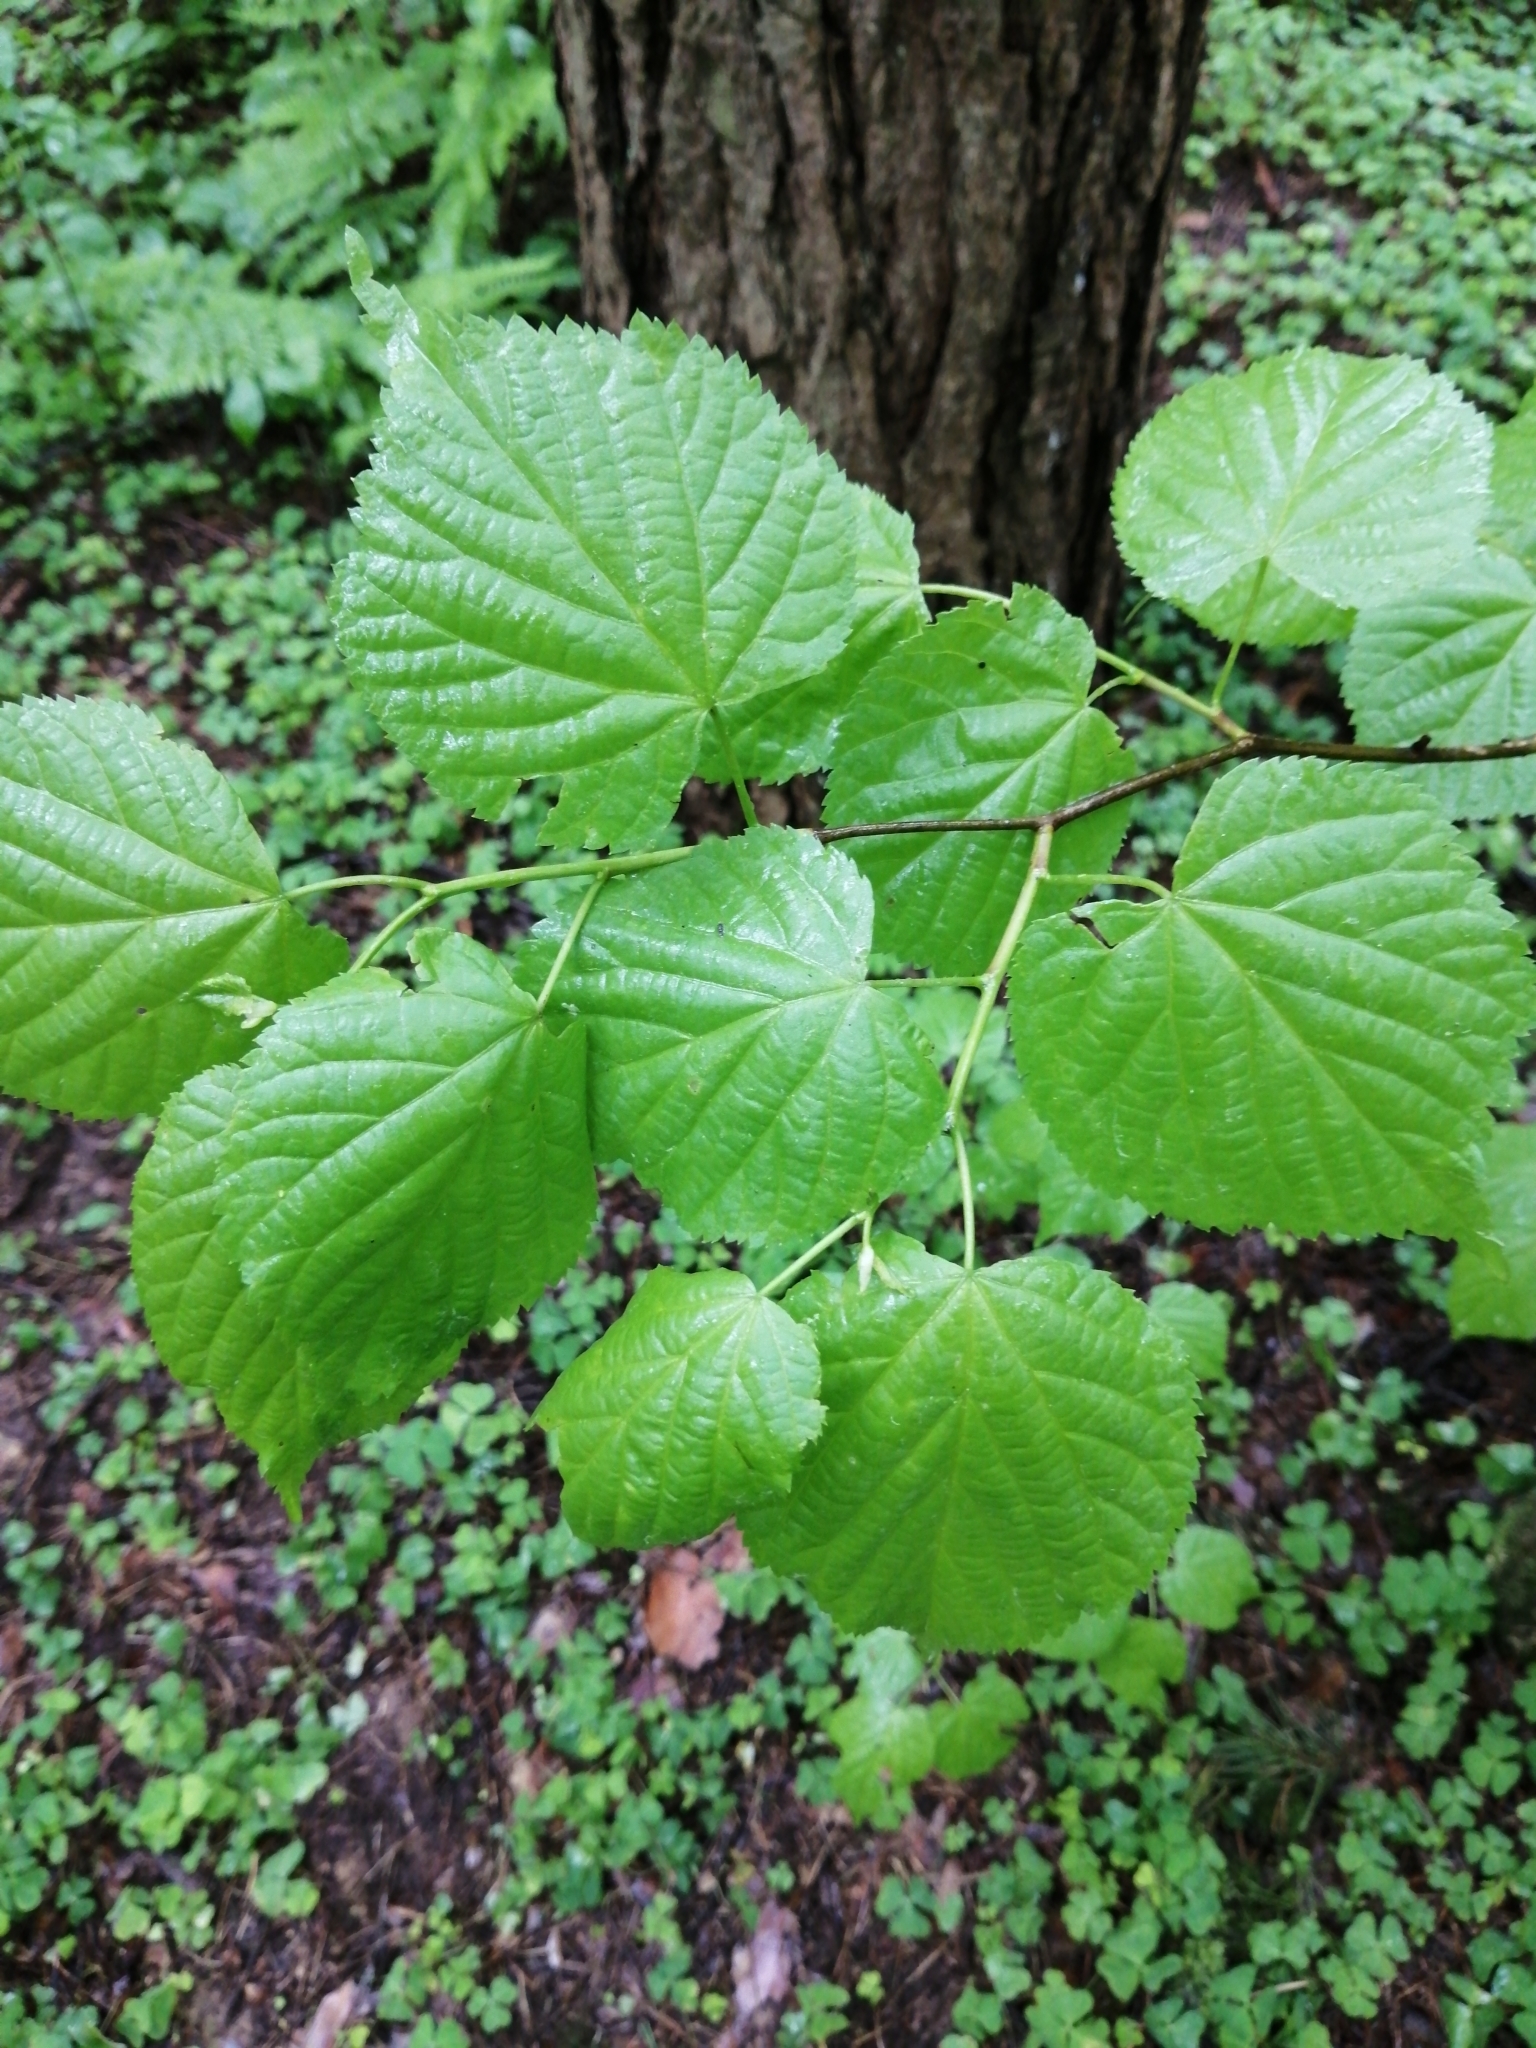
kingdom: Plantae
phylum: Tracheophyta
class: Magnoliopsida
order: Malvales
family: Malvaceae
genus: Tilia
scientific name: Tilia cordata
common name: Small-leaved lime
